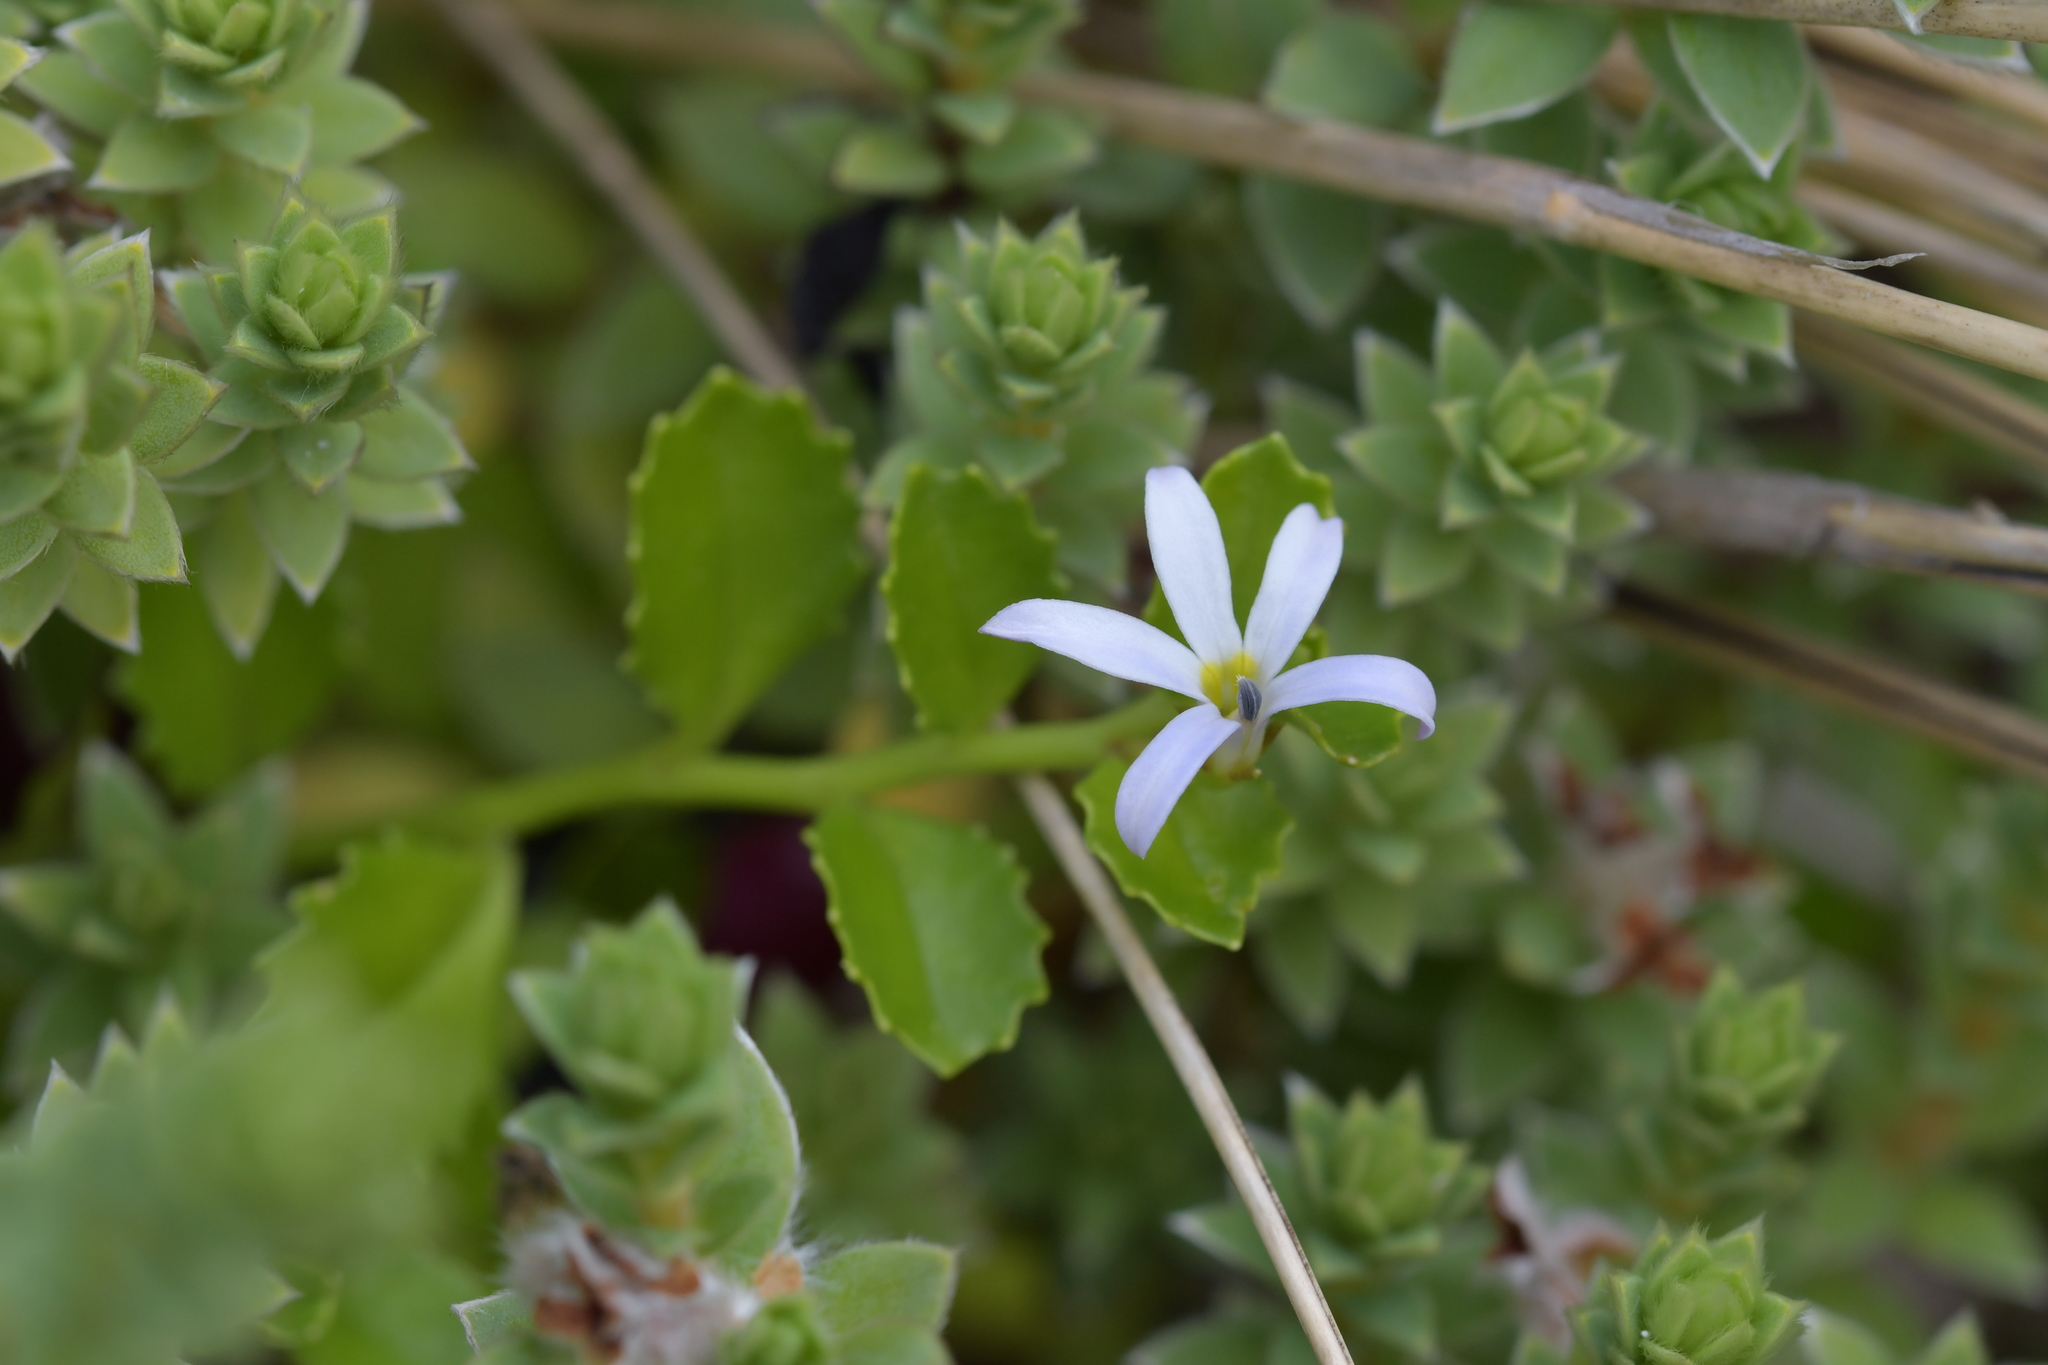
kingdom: Plantae
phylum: Tracheophyta
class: Magnoliopsida
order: Asterales
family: Campanulaceae
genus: Lobelia
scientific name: Lobelia arenaria
